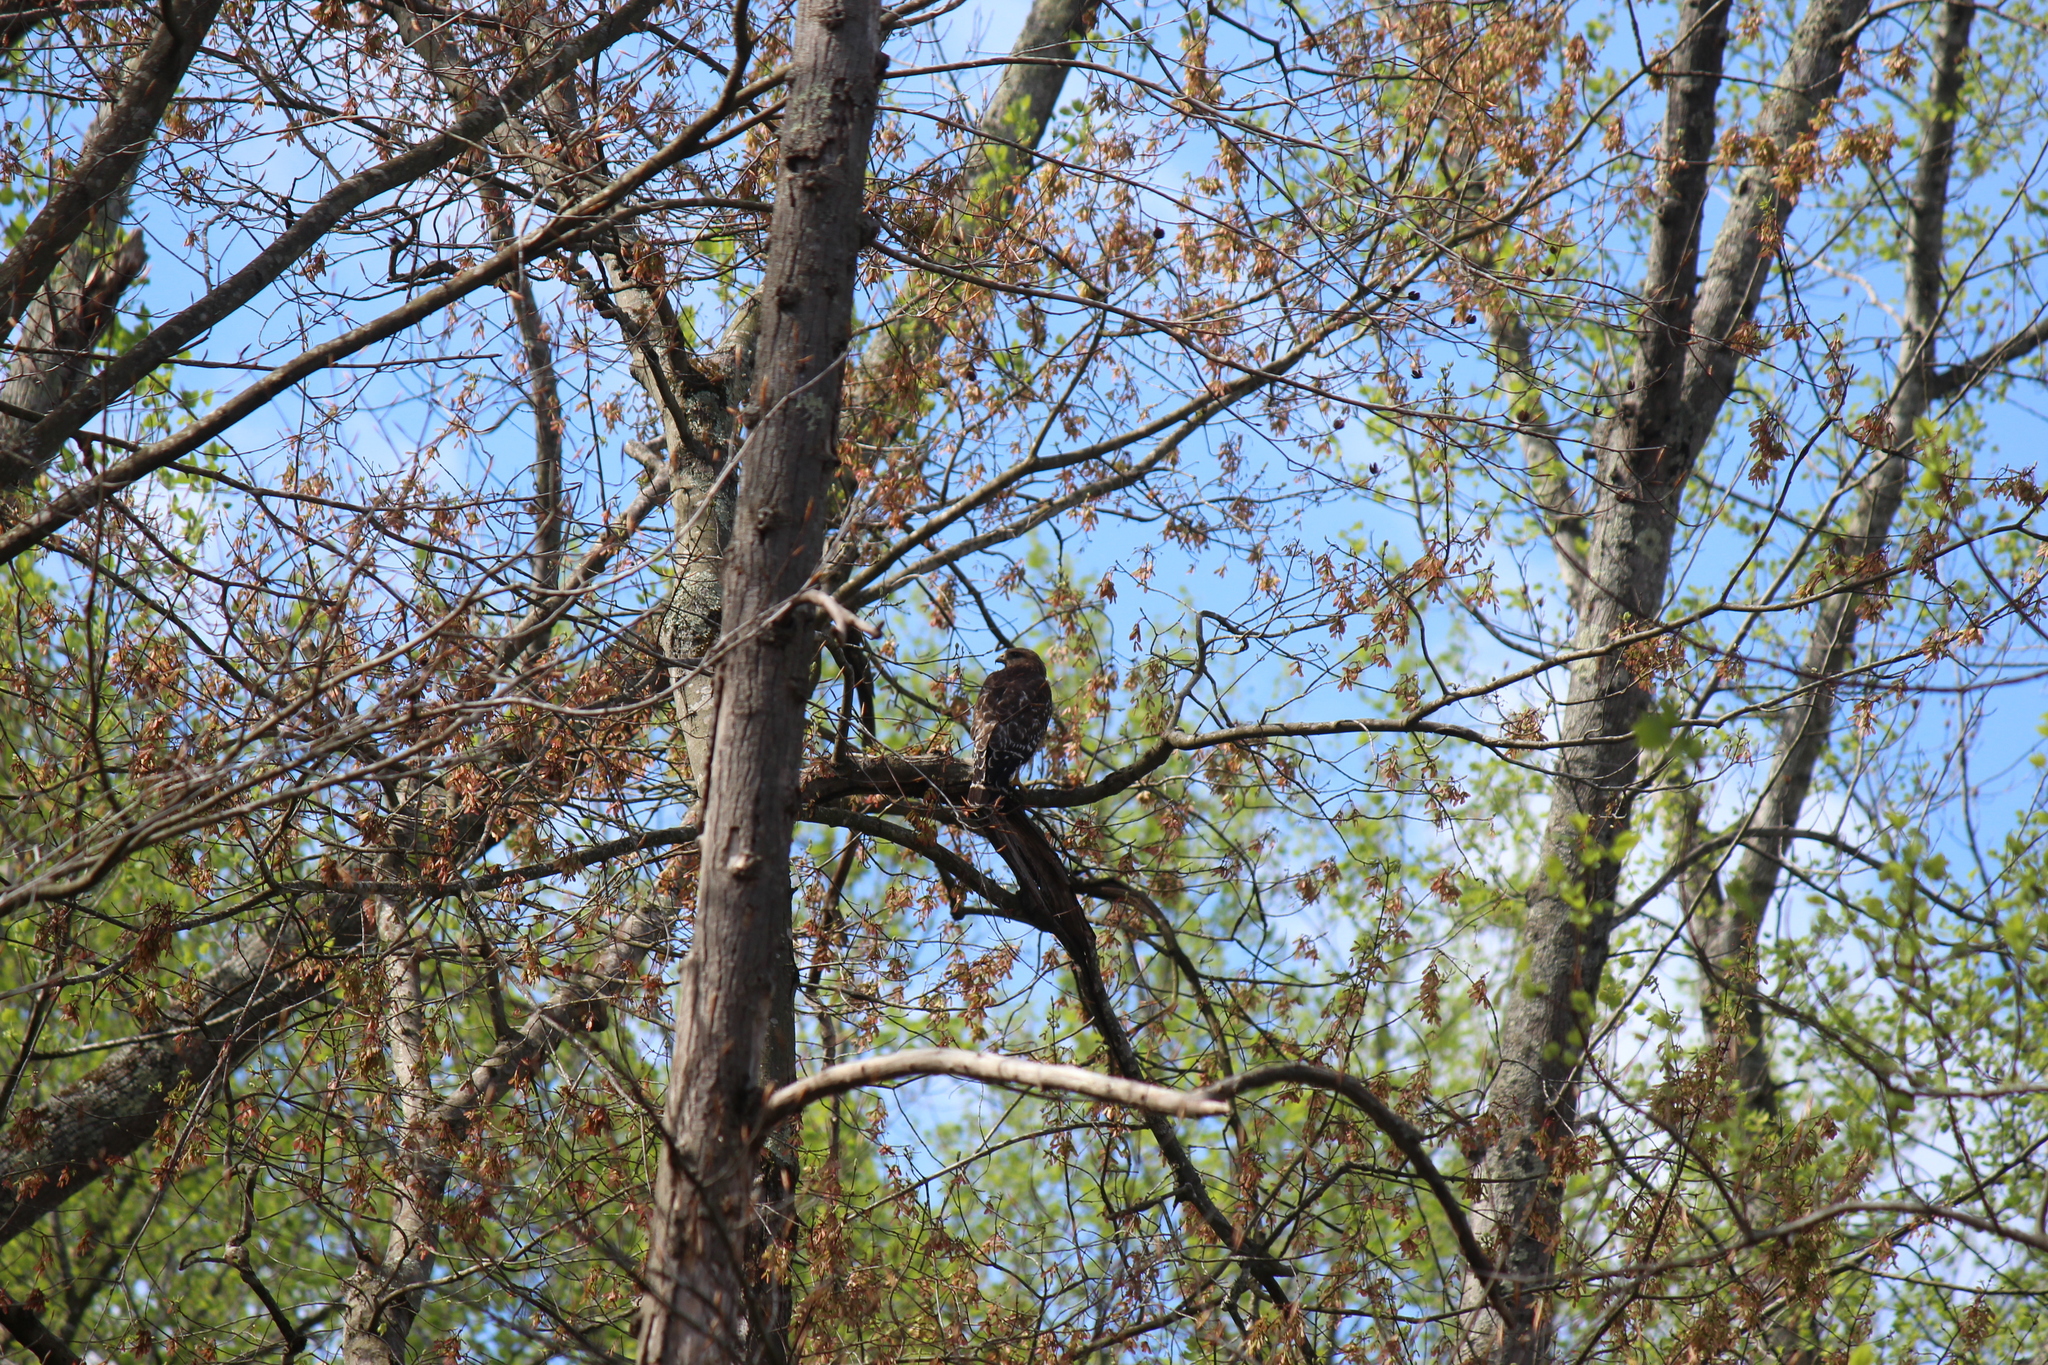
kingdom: Animalia
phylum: Chordata
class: Aves
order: Accipitriformes
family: Accipitridae
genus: Buteo
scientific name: Buteo lineatus
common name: Red-shouldered hawk
